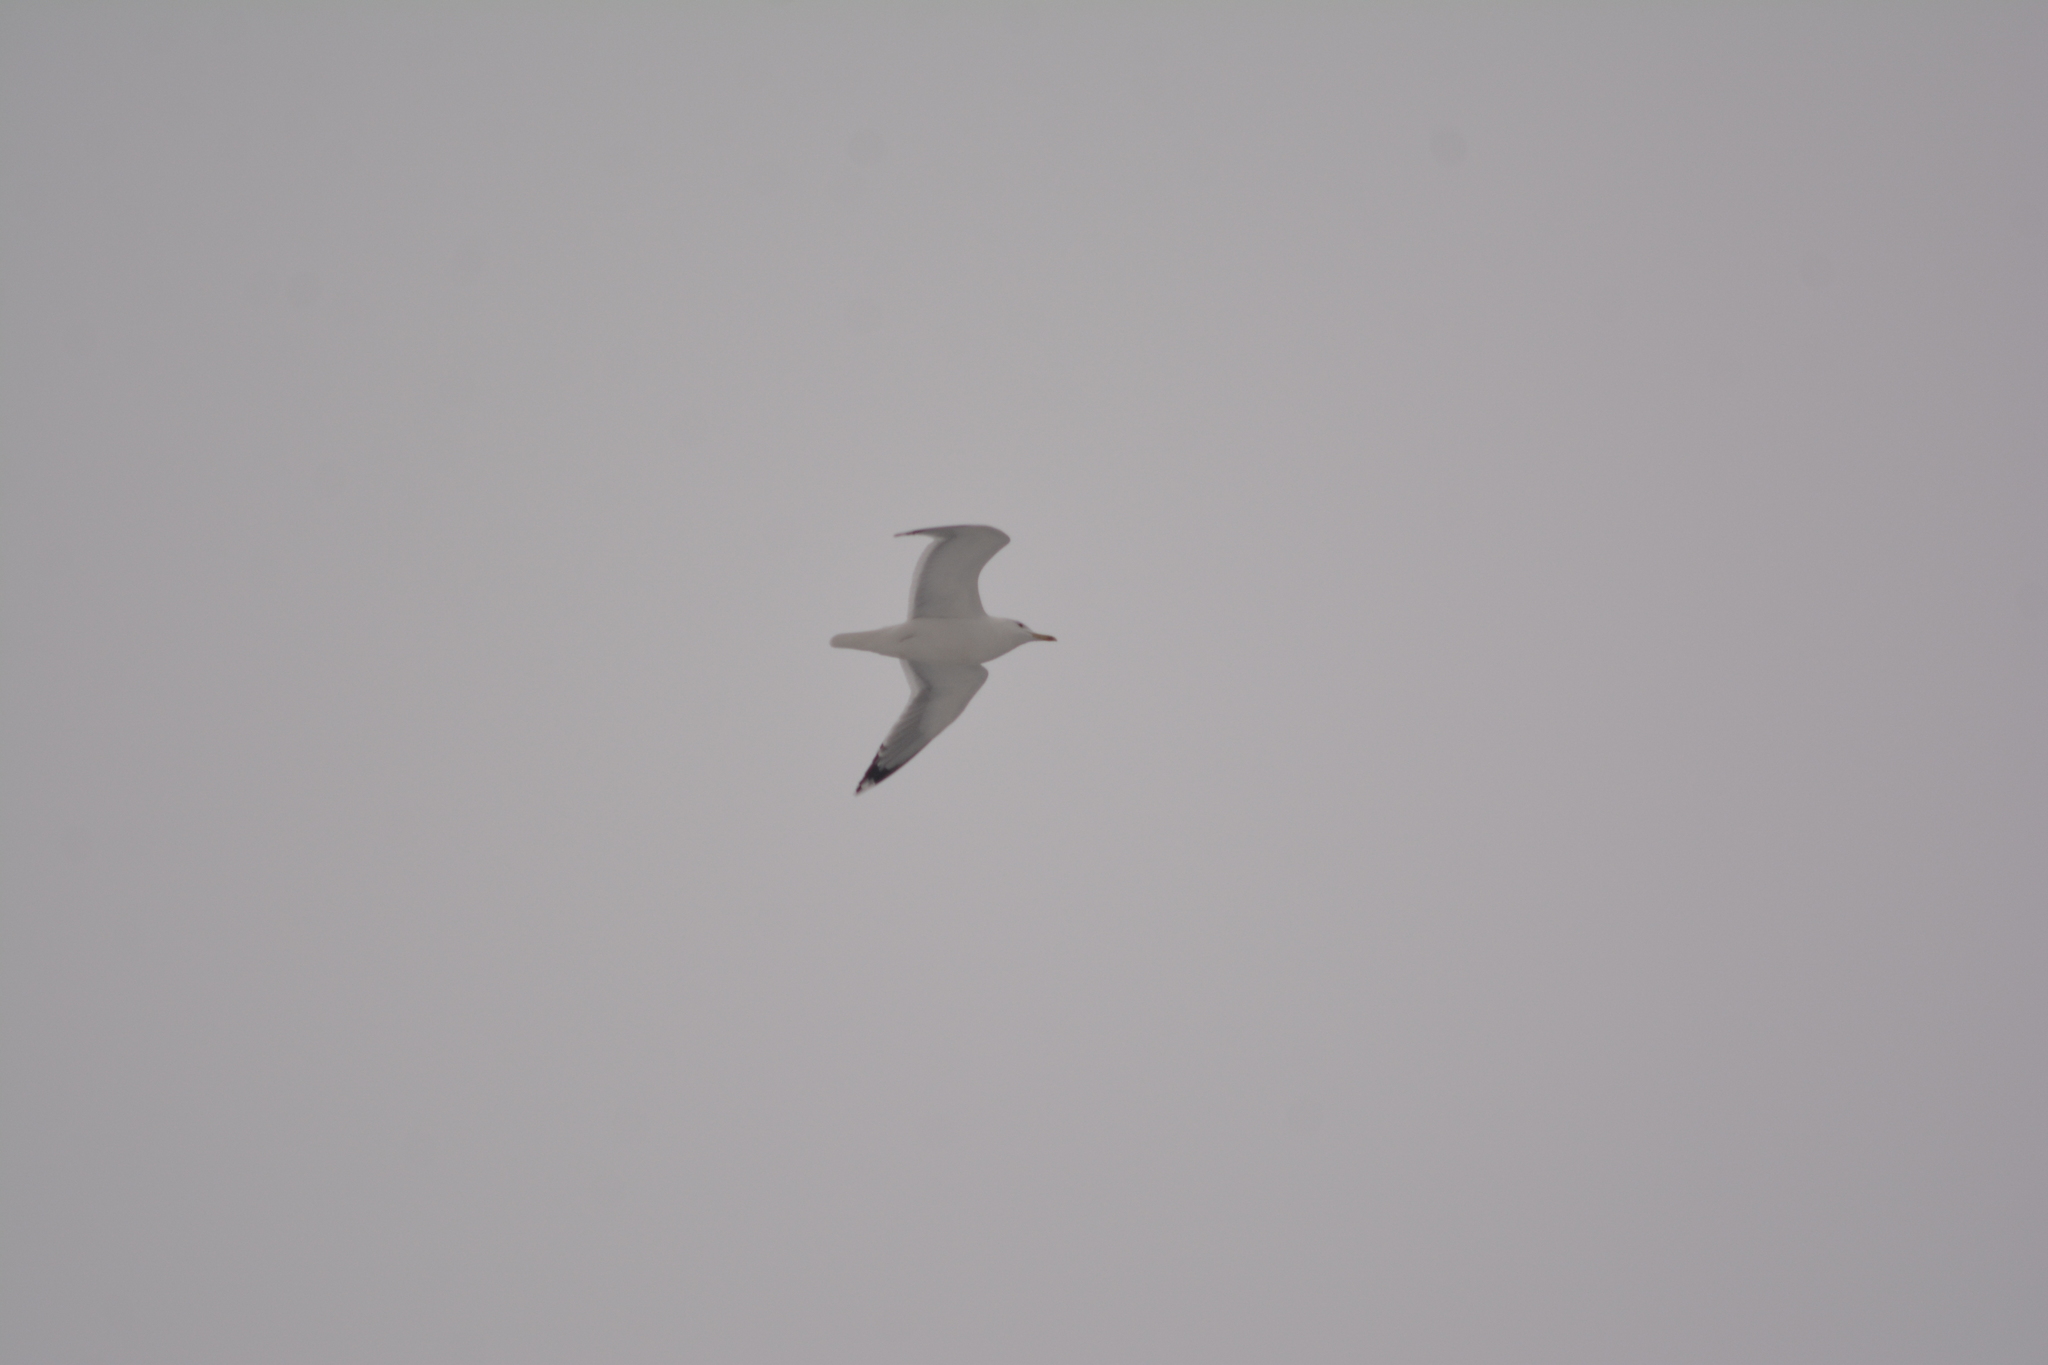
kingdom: Animalia
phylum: Chordata
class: Aves
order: Charadriiformes
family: Laridae
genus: Larus
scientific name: Larus cachinnans
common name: Caspian gull
